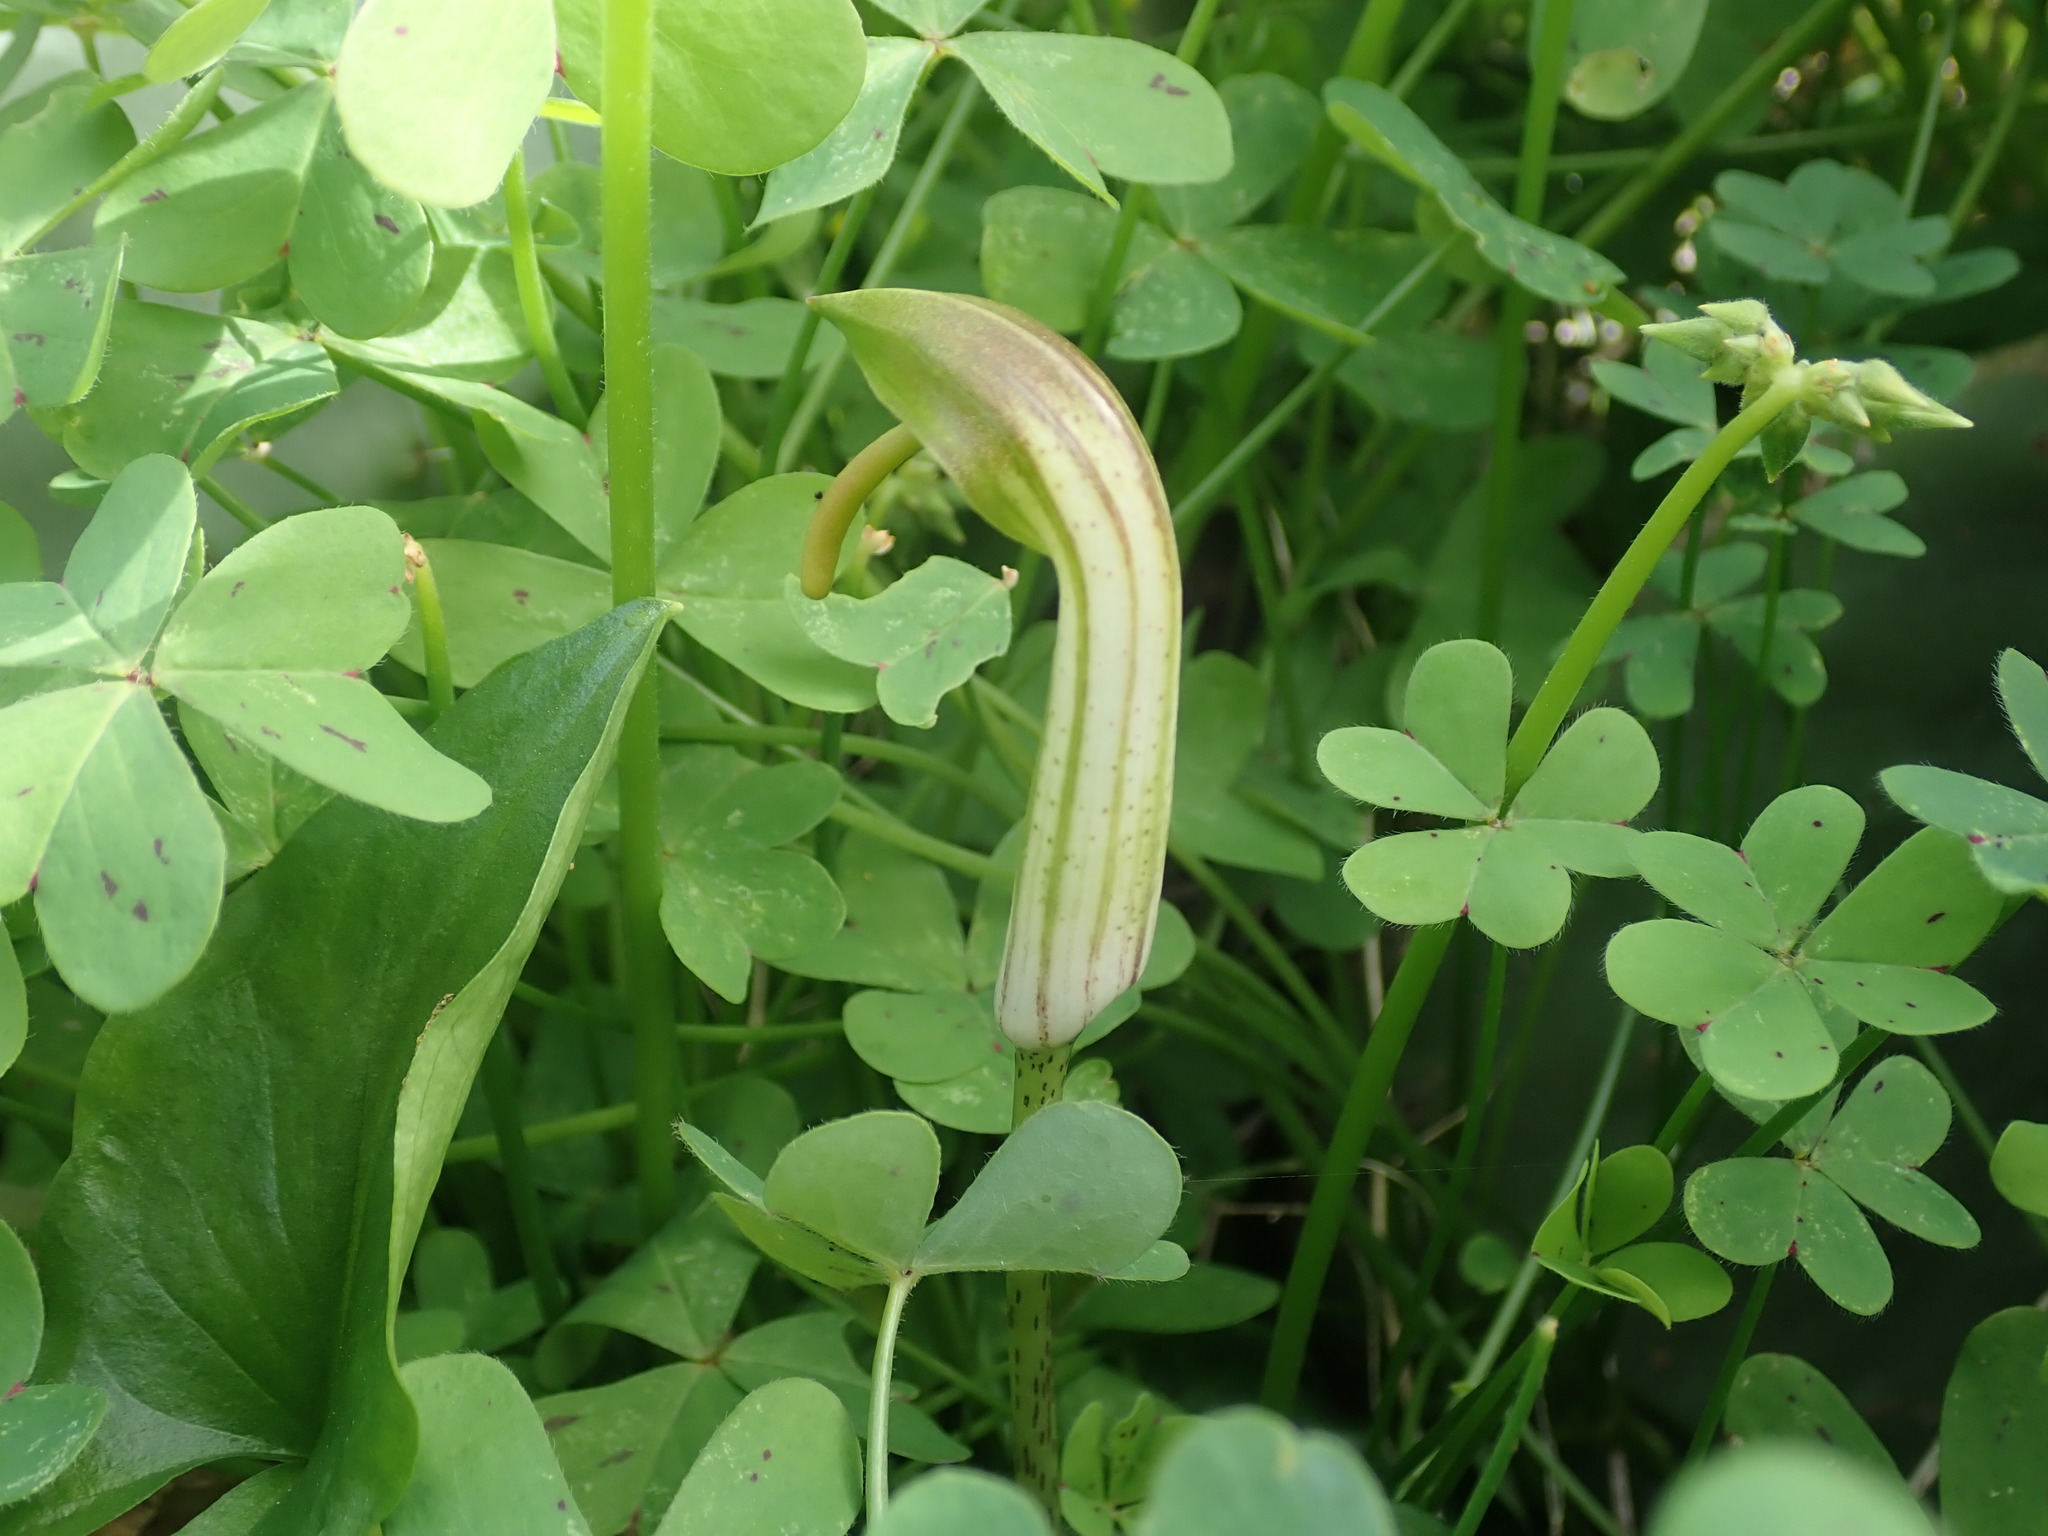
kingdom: Plantae
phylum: Tracheophyta
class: Liliopsida
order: Alismatales
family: Araceae
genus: Arisarum
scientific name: Arisarum vulgare
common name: Common arisarum
